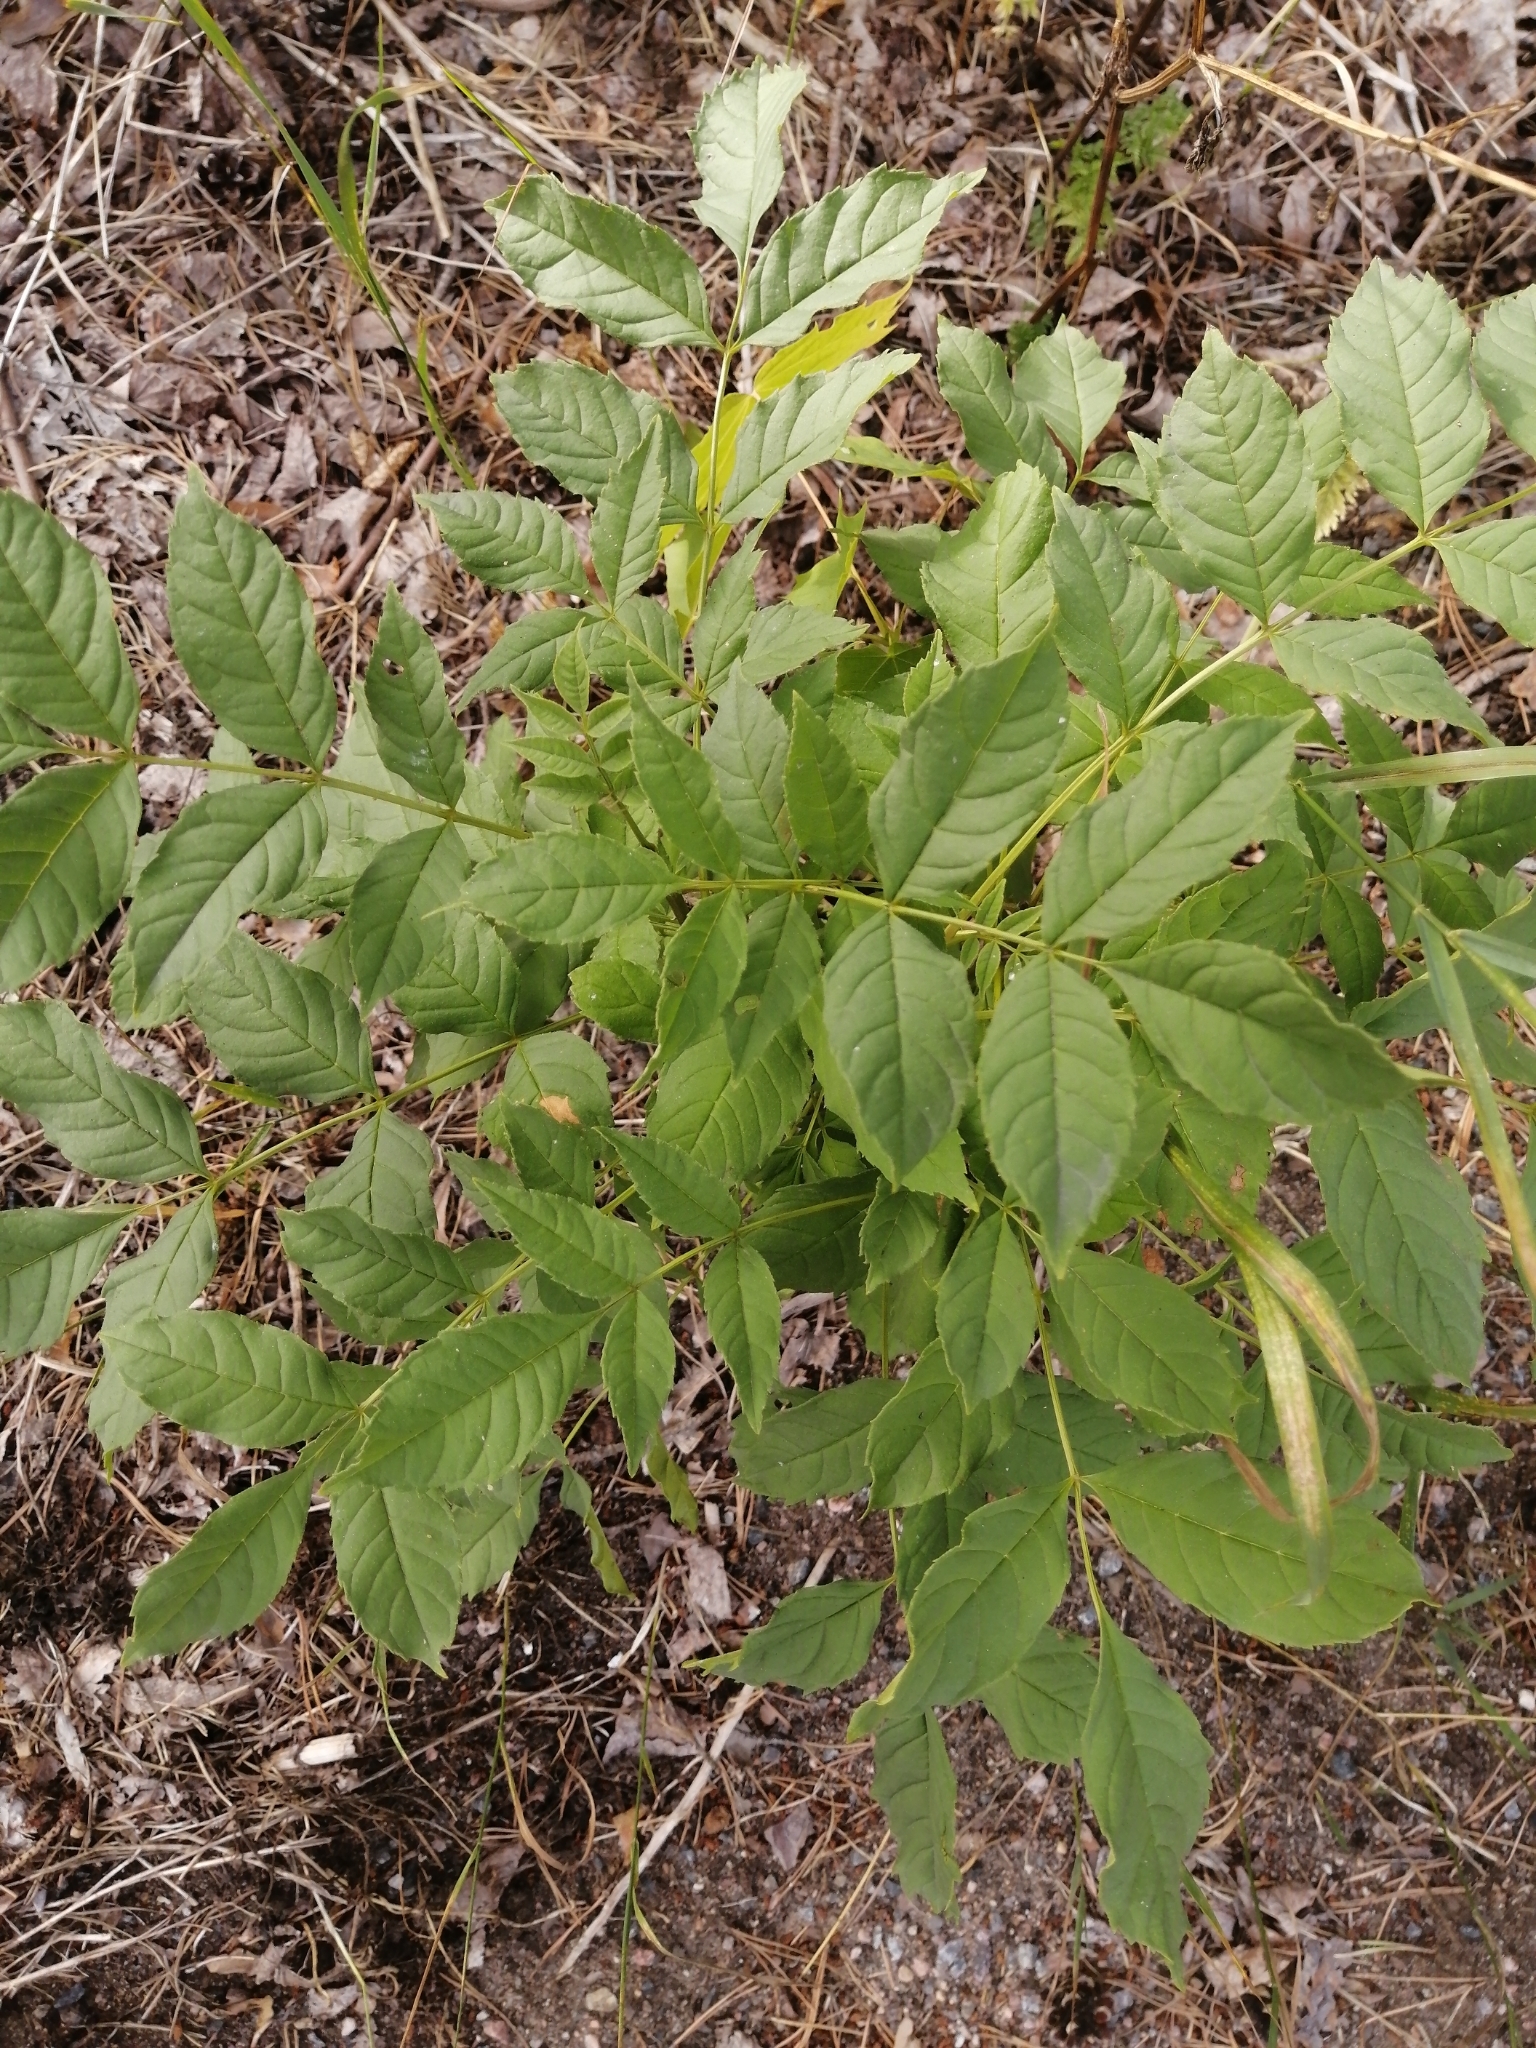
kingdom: Plantae
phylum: Tracheophyta
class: Magnoliopsida
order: Lamiales
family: Oleaceae
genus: Fraxinus
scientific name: Fraxinus excelsior
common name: European ash
